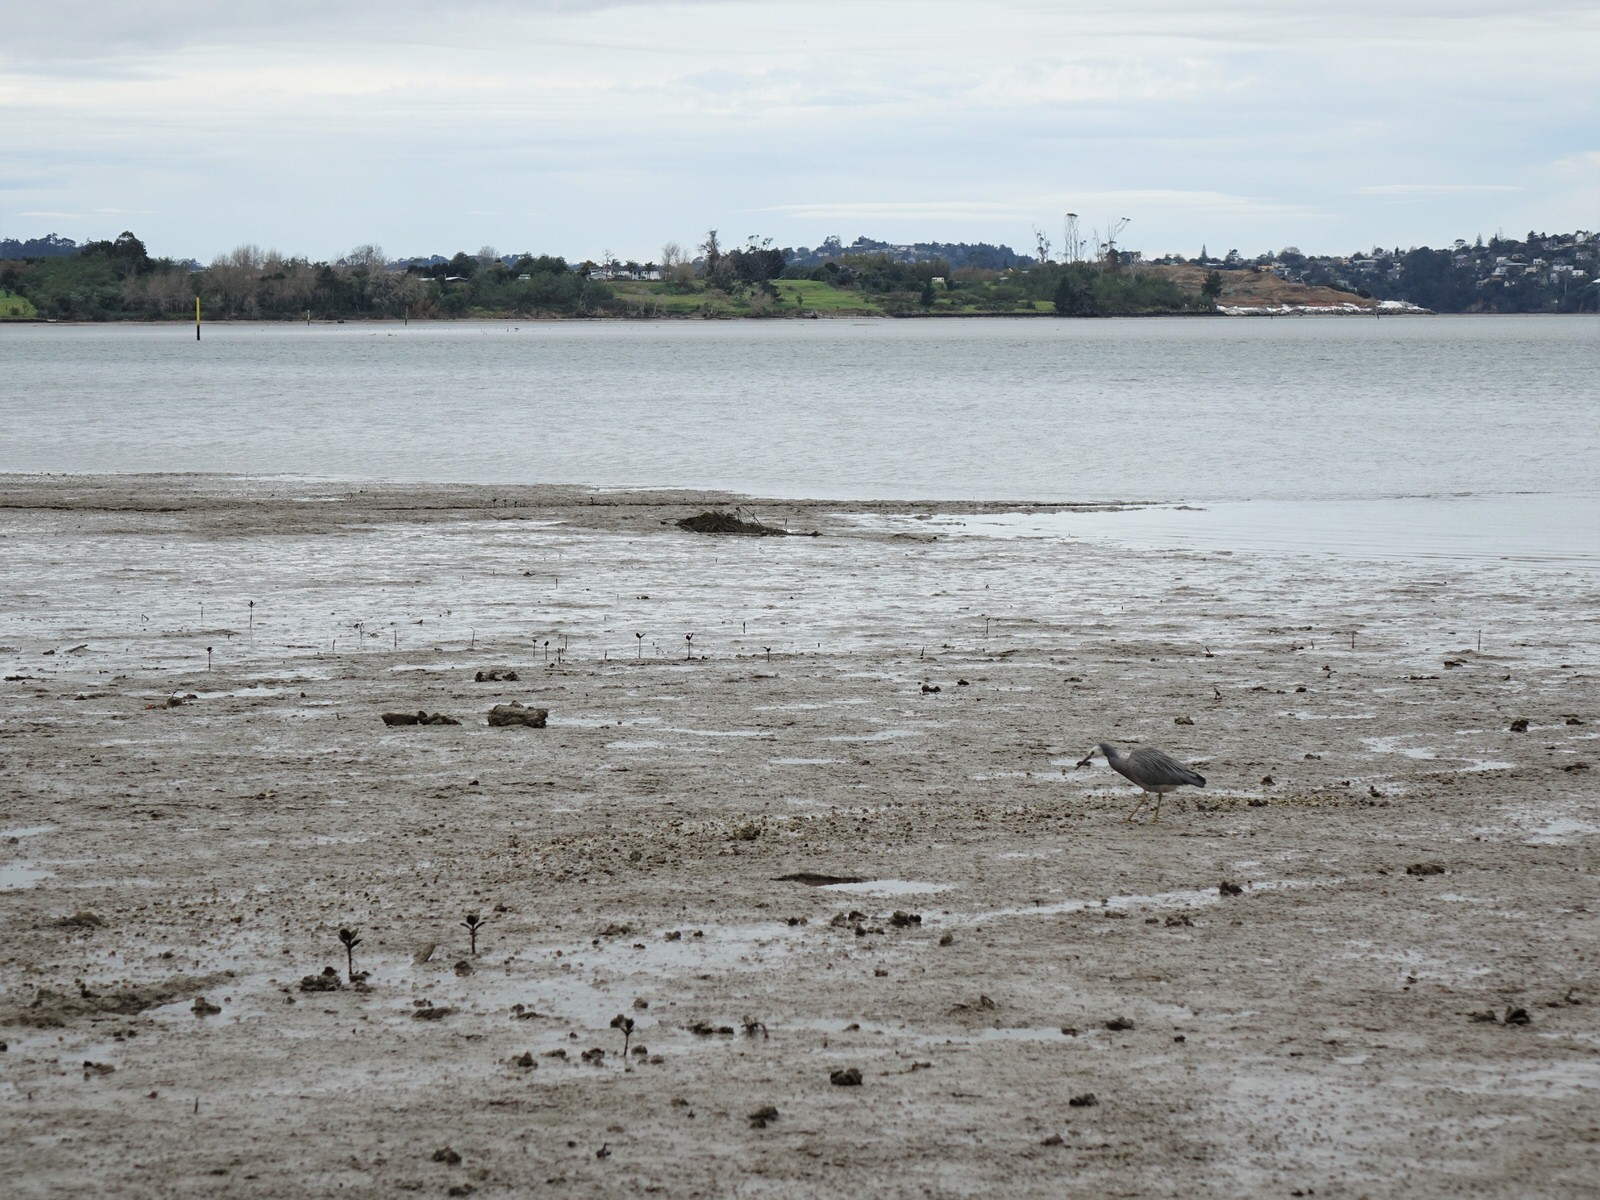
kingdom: Animalia
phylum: Chordata
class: Aves
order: Pelecaniformes
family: Ardeidae
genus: Egretta
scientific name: Egretta novaehollandiae
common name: White-faced heron
